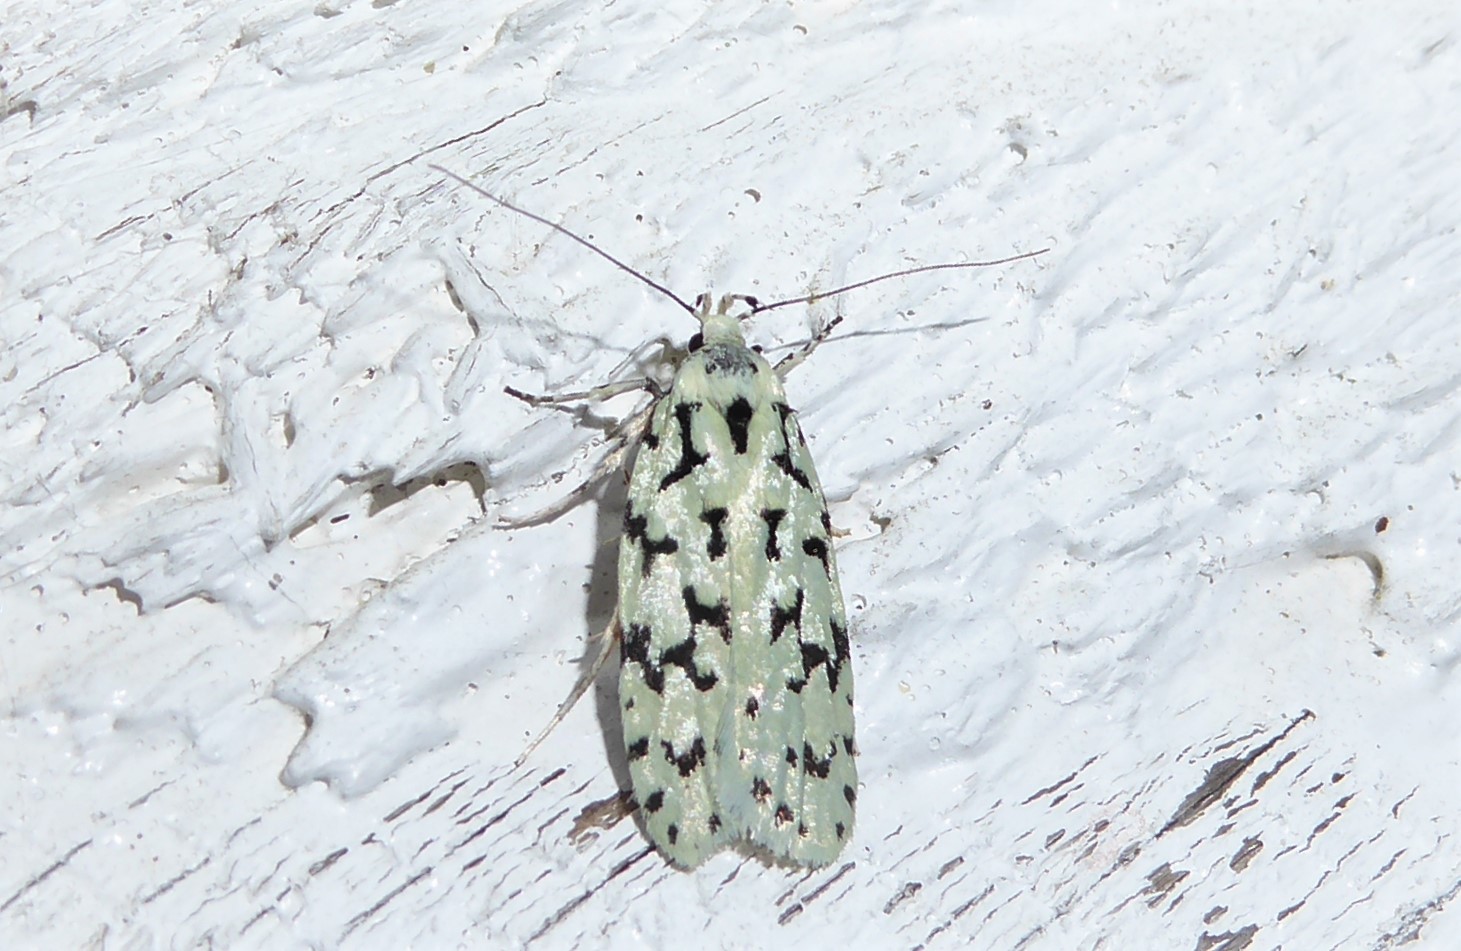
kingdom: Animalia
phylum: Arthropoda
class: Insecta
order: Lepidoptera
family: Oecophoridae
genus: Izatha
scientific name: Izatha huttoni
